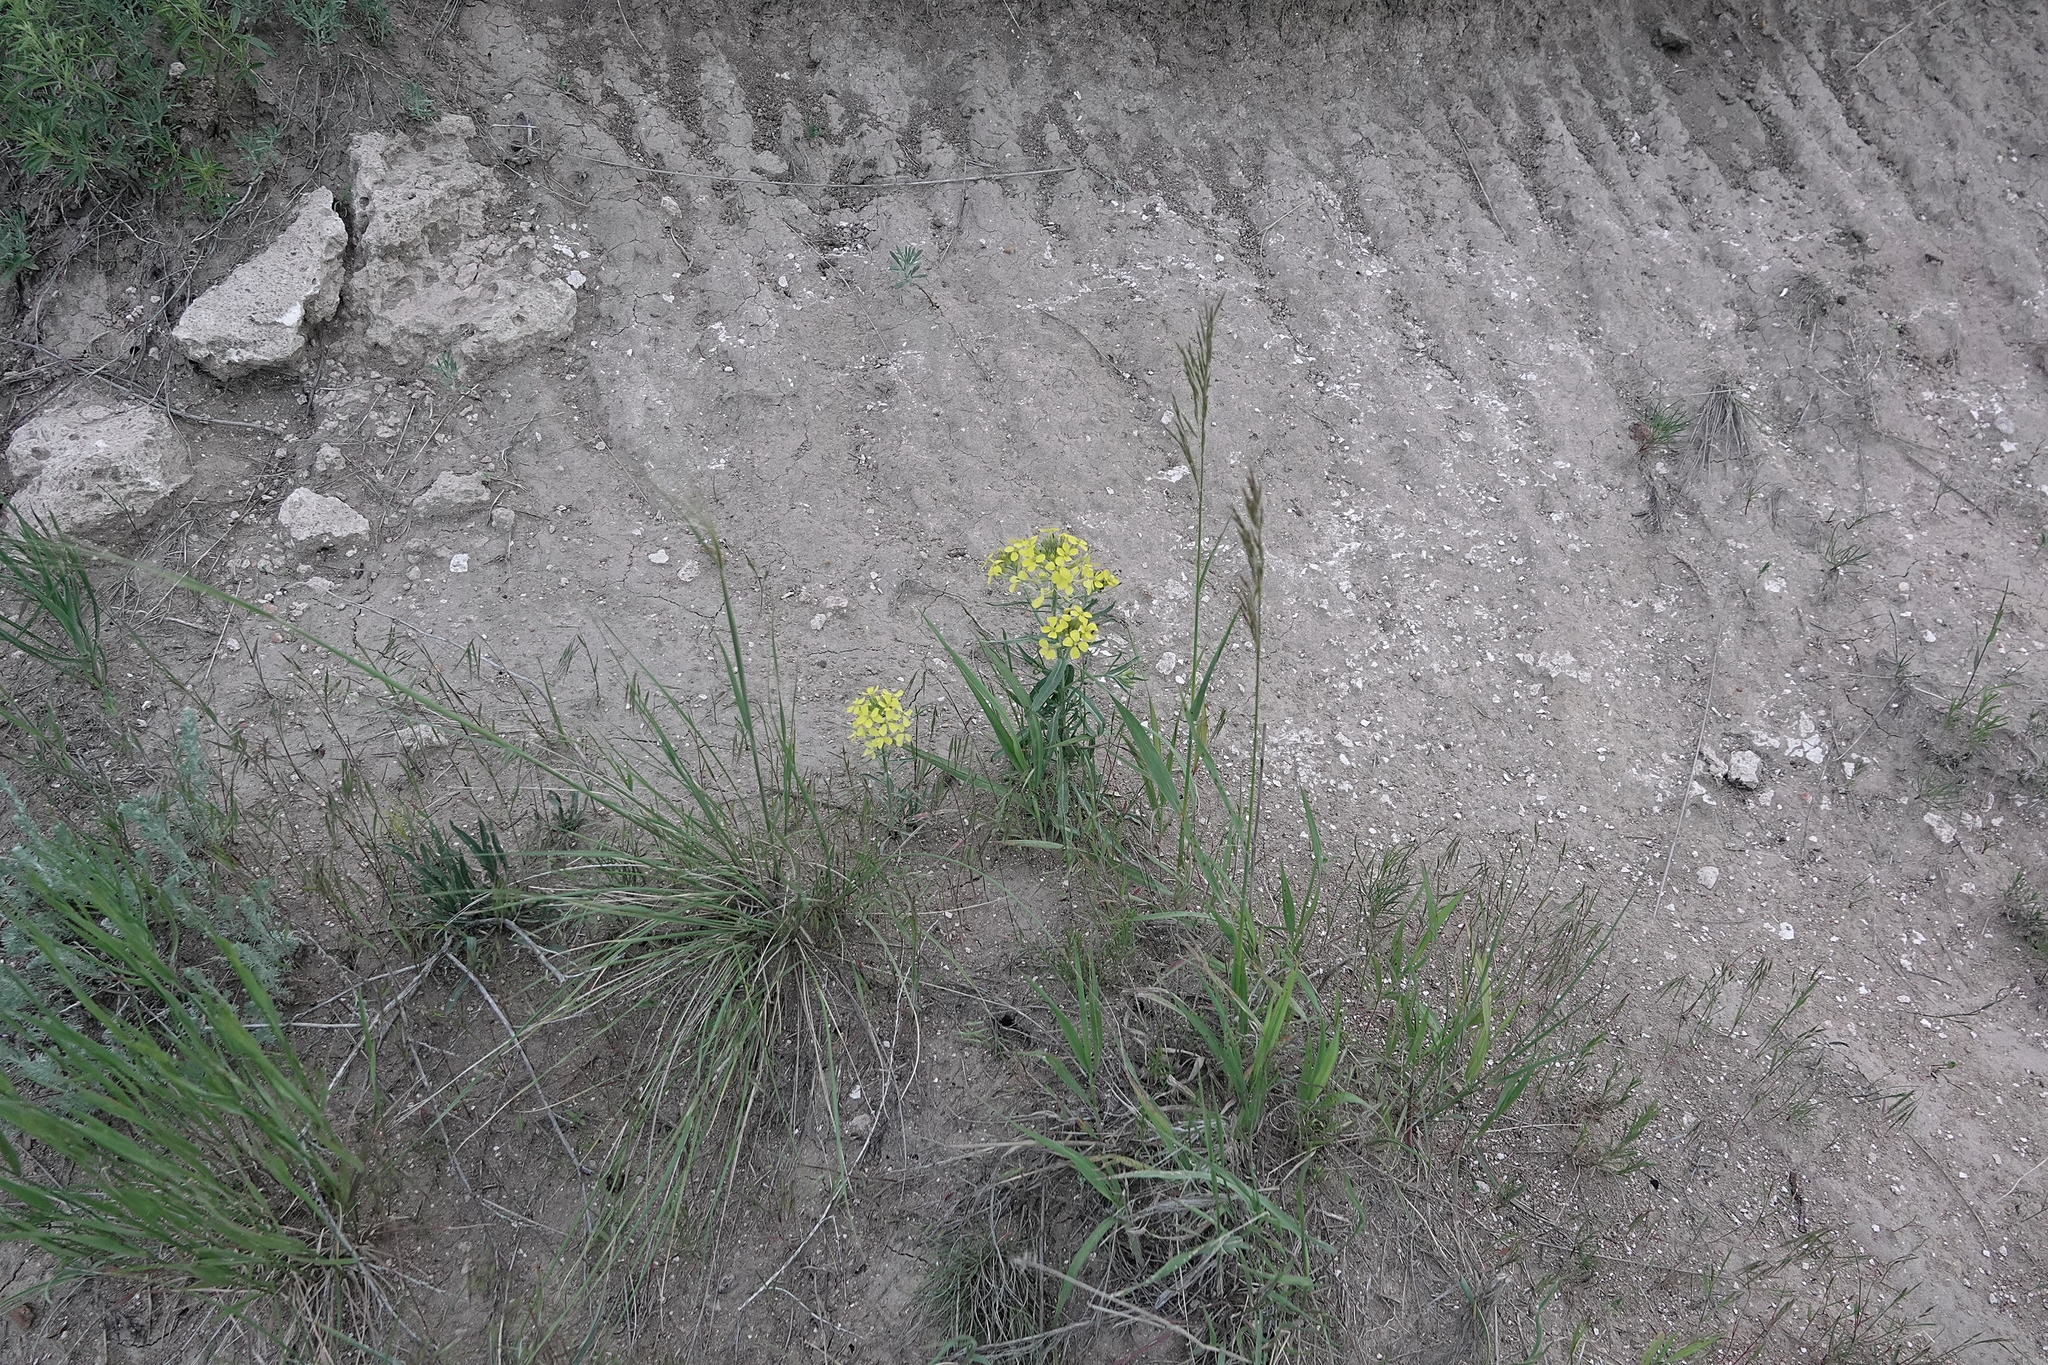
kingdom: Plantae
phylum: Tracheophyta
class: Magnoliopsida
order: Brassicales
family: Brassicaceae
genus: Erysimum
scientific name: Erysimum capitatum
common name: Western wallflower
